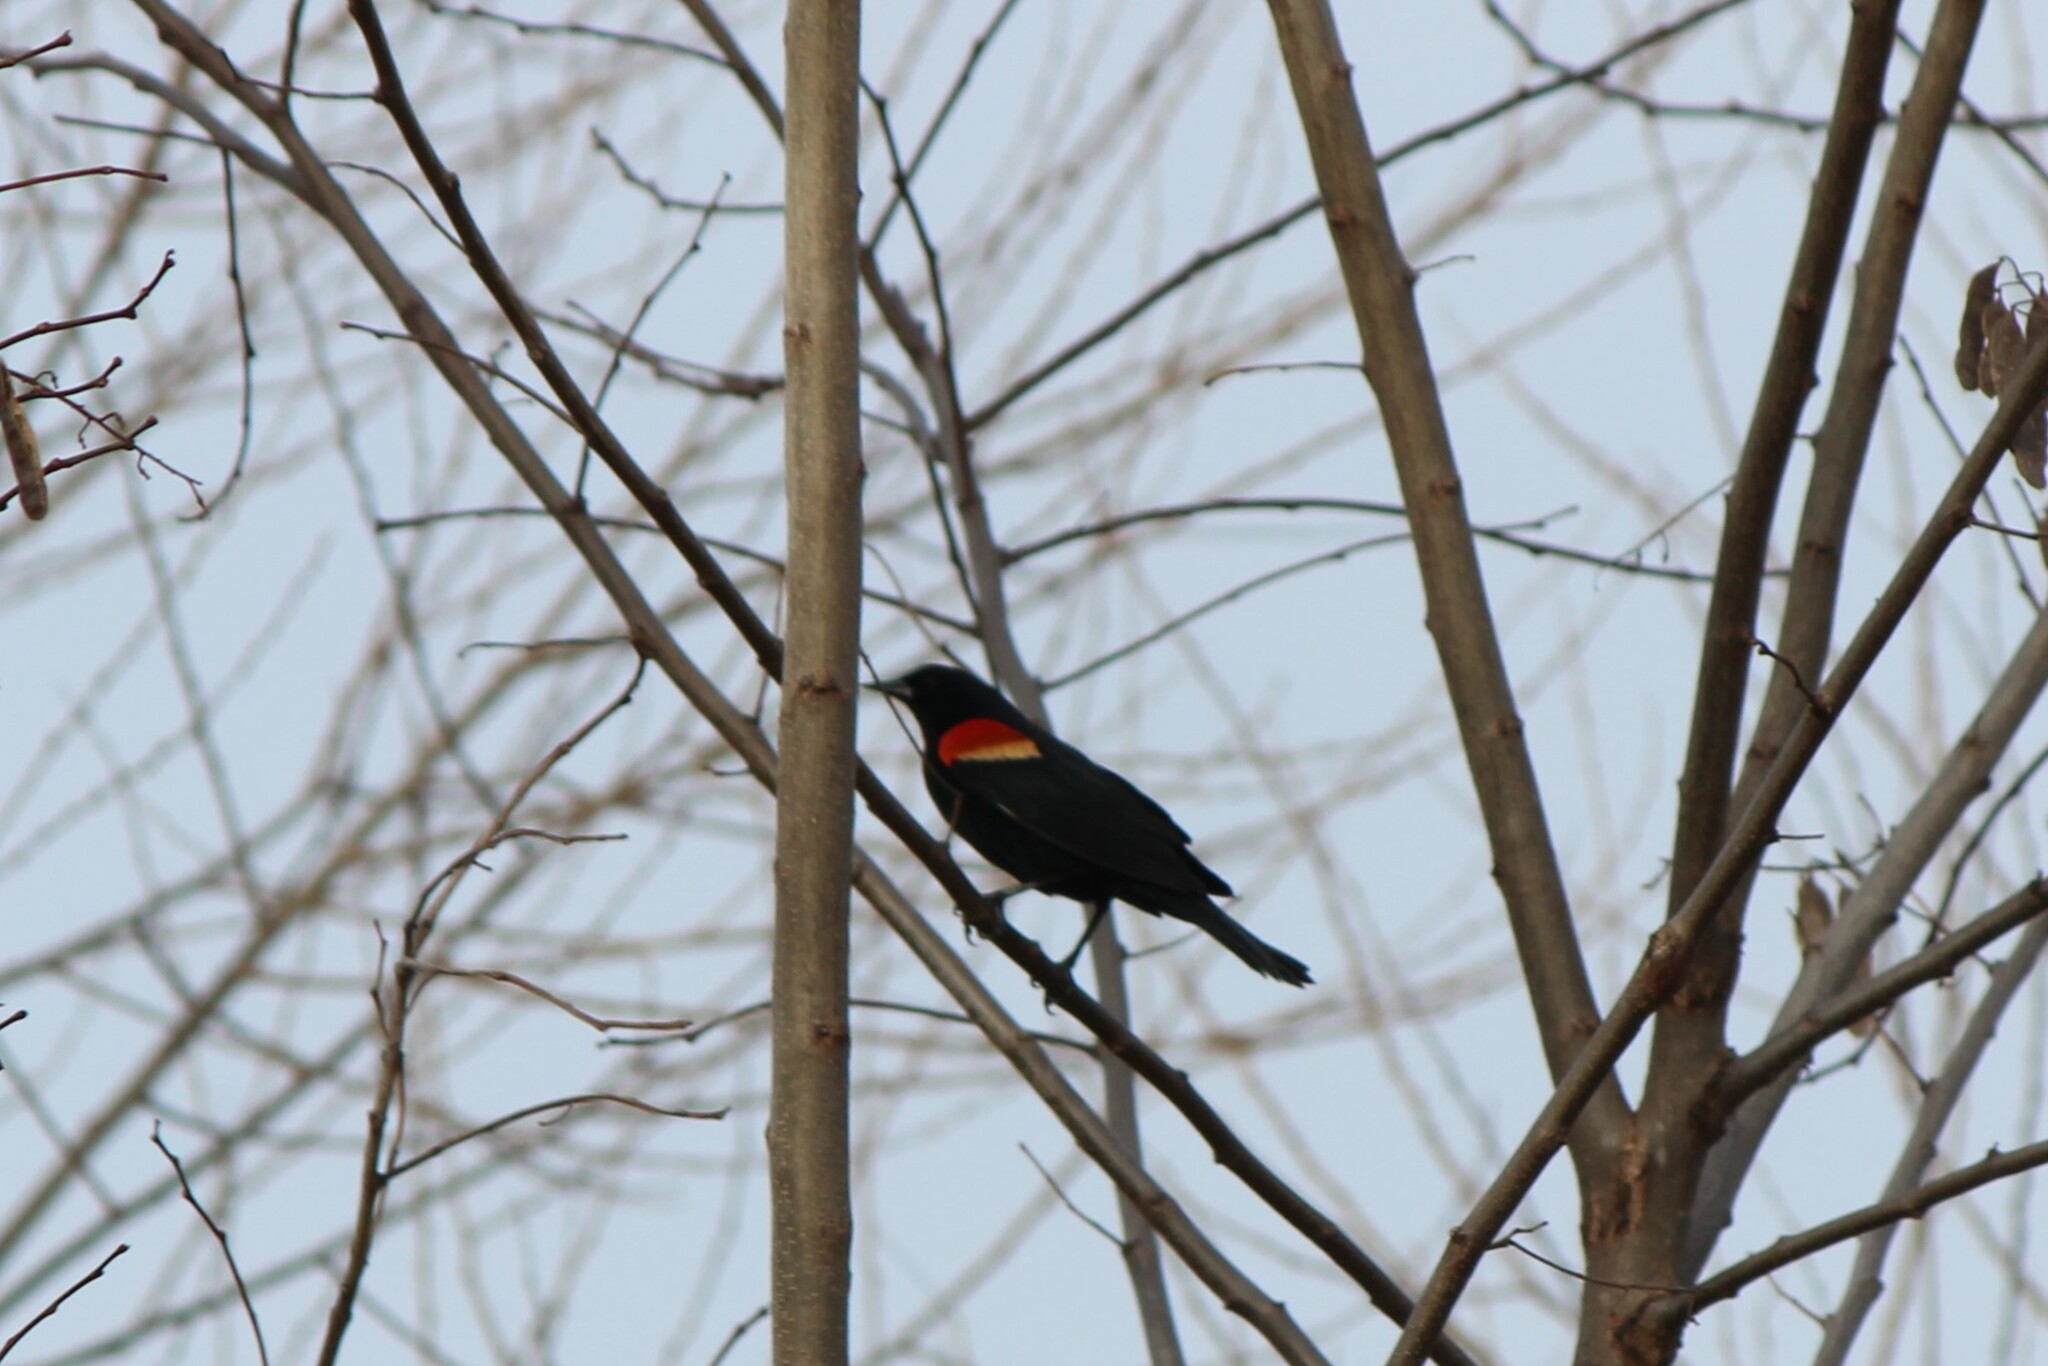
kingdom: Animalia
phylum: Chordata
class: Aves
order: Passeriformes
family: Icteridae
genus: Agelaius
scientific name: Agelaius phoeniceus
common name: Red-winged blackbird
